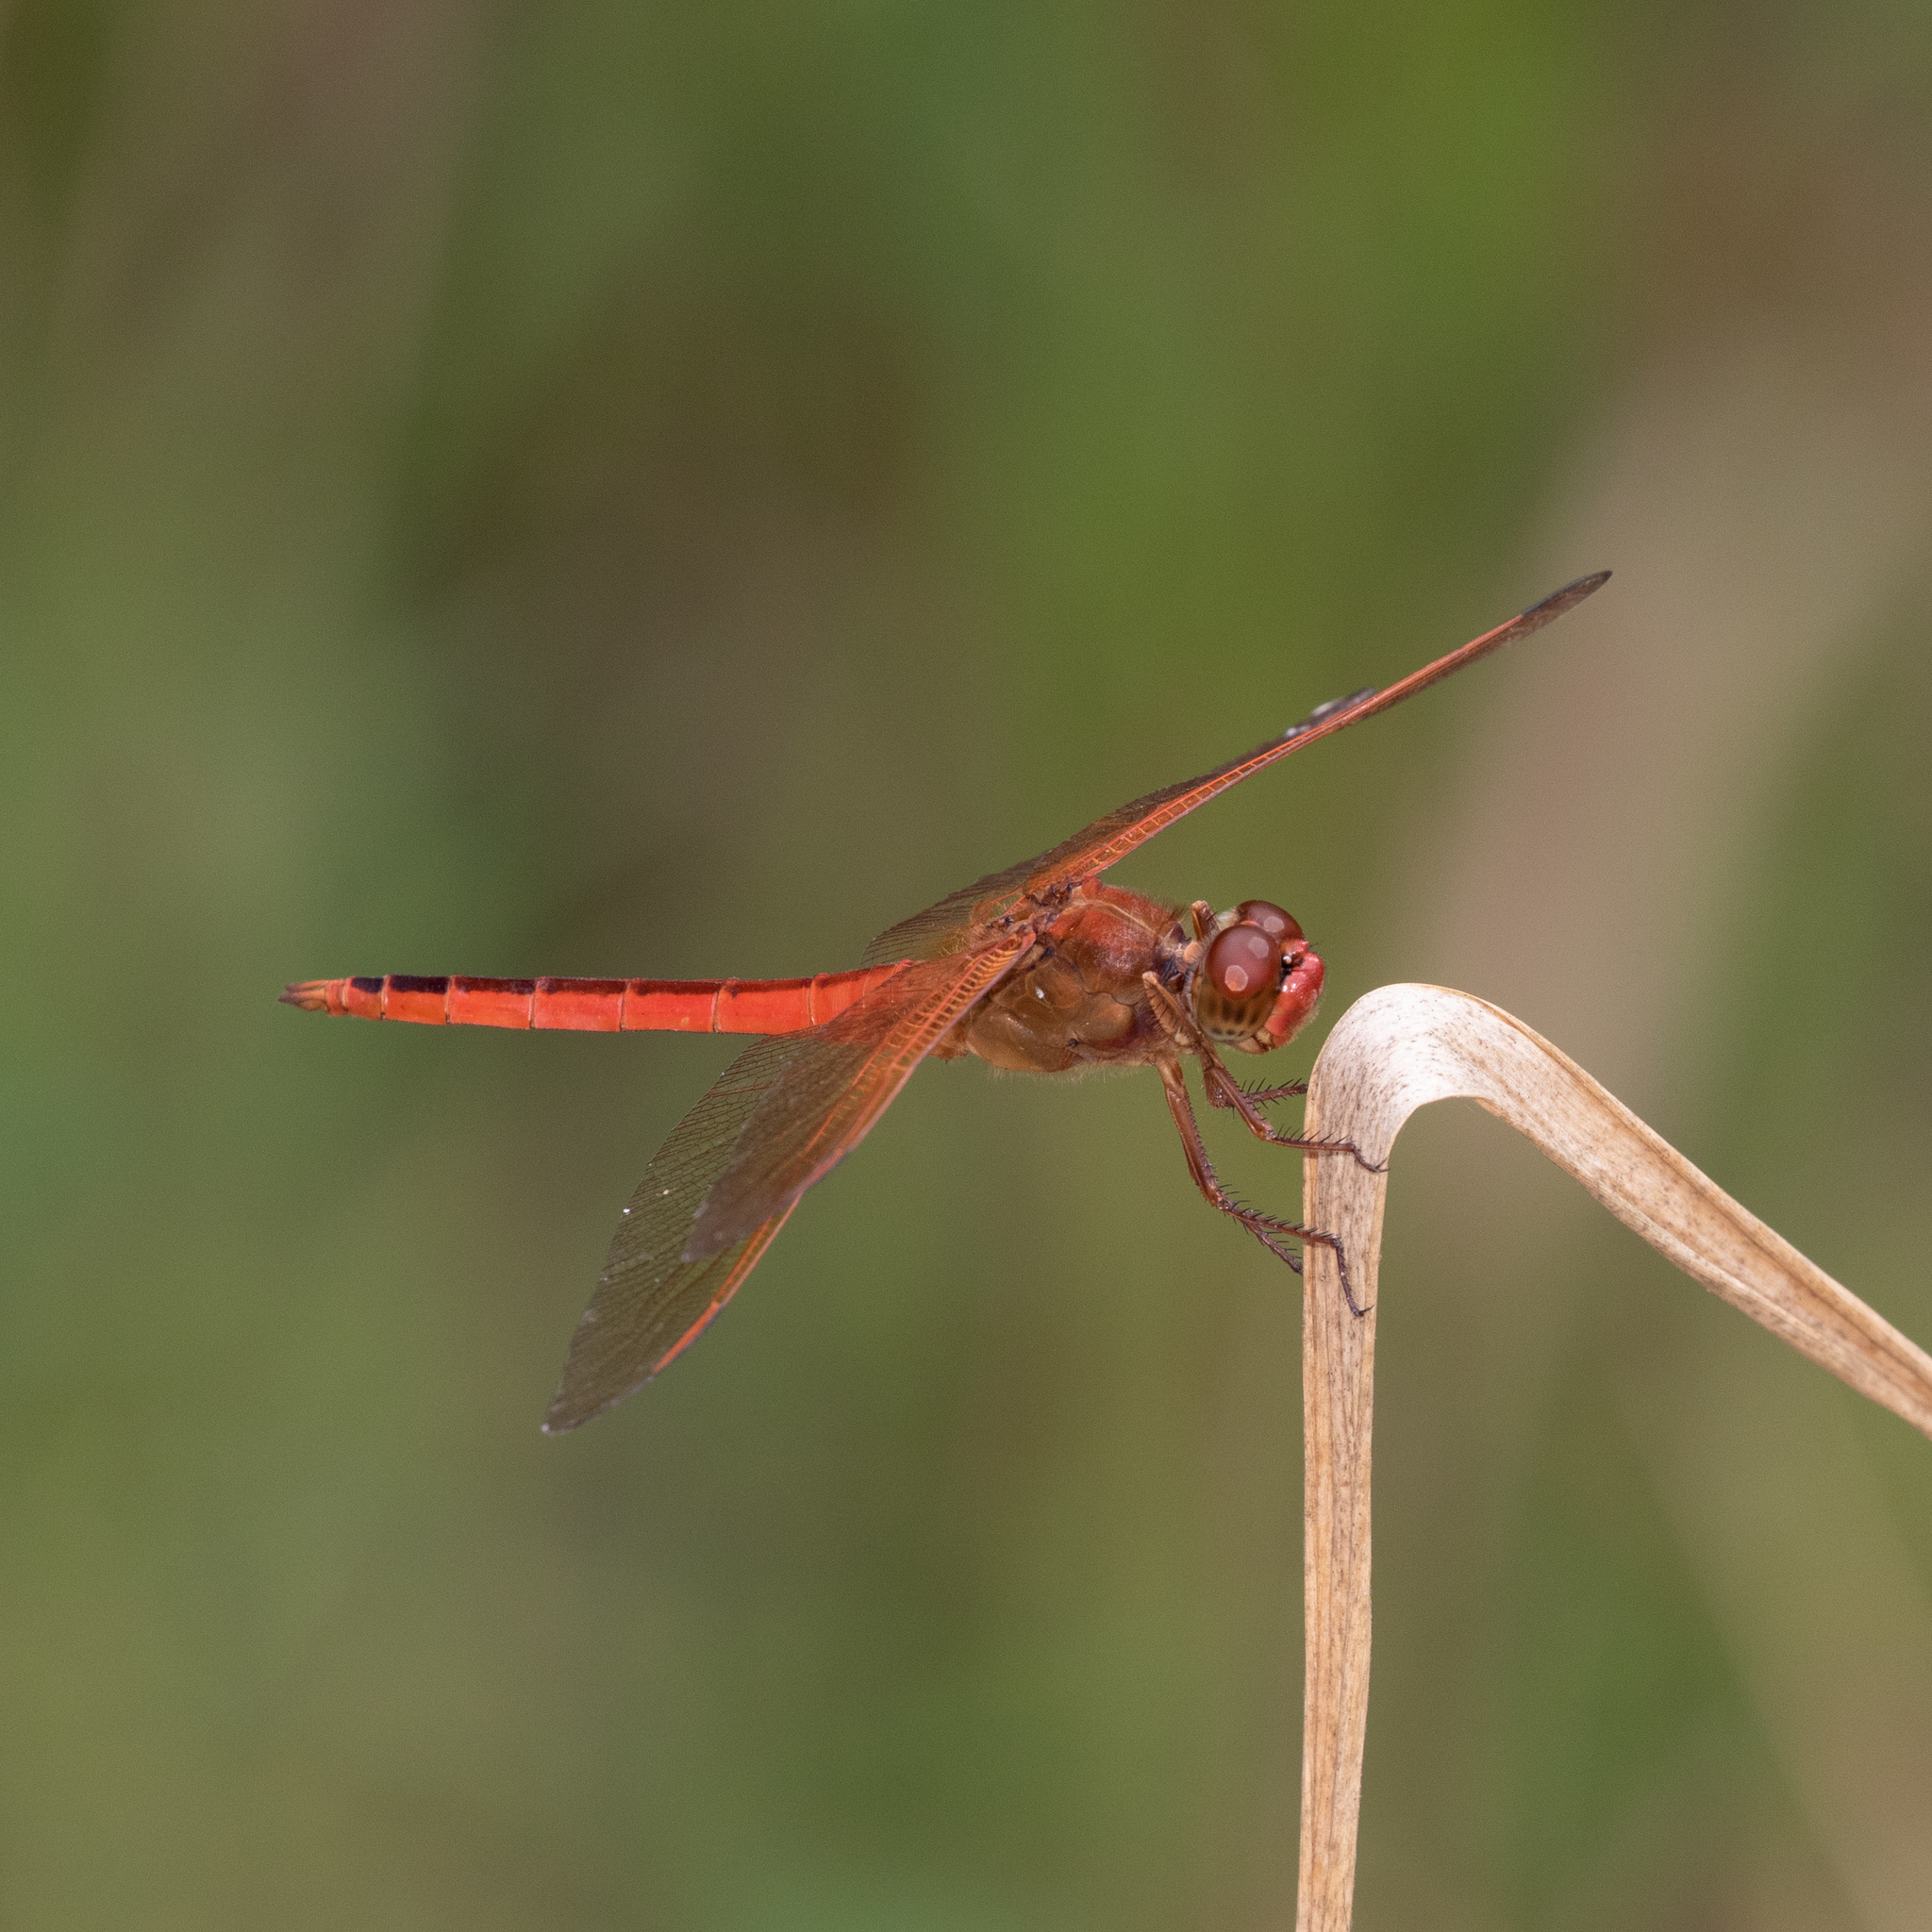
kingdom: Animalia
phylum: Arthropoda
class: Insecta
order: Odonata
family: Libellulidae
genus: Libellula
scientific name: Libellula needhami
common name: Needham's skimmer
